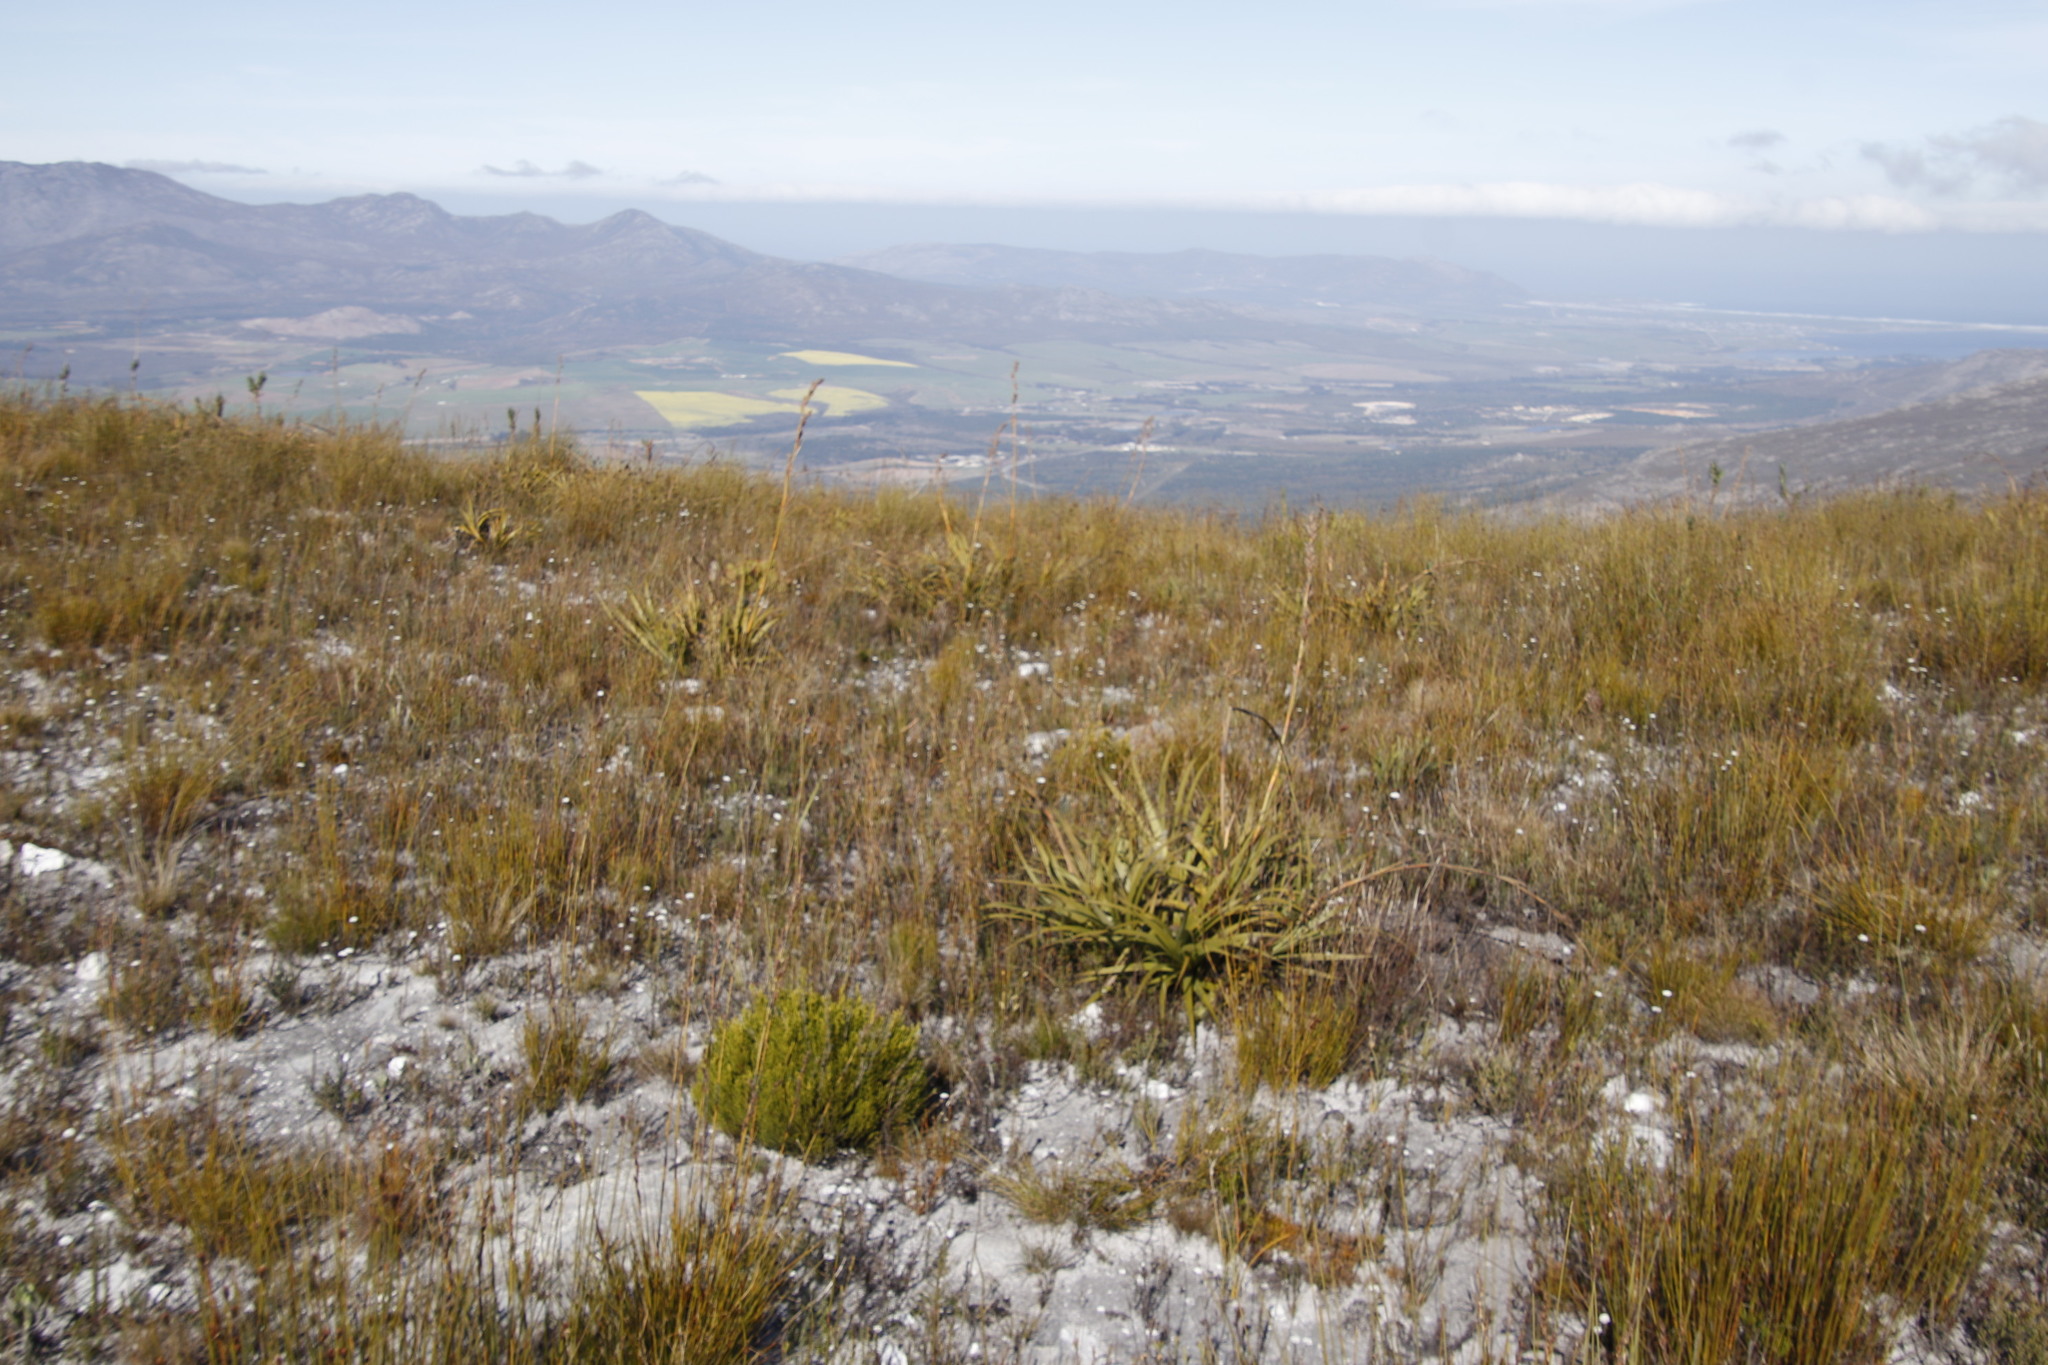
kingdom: Plantae
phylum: Tracheophyta
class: Liliopsida
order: Poales
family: Cyperaceae
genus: Tetraria
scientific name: Tetraria thermalis
